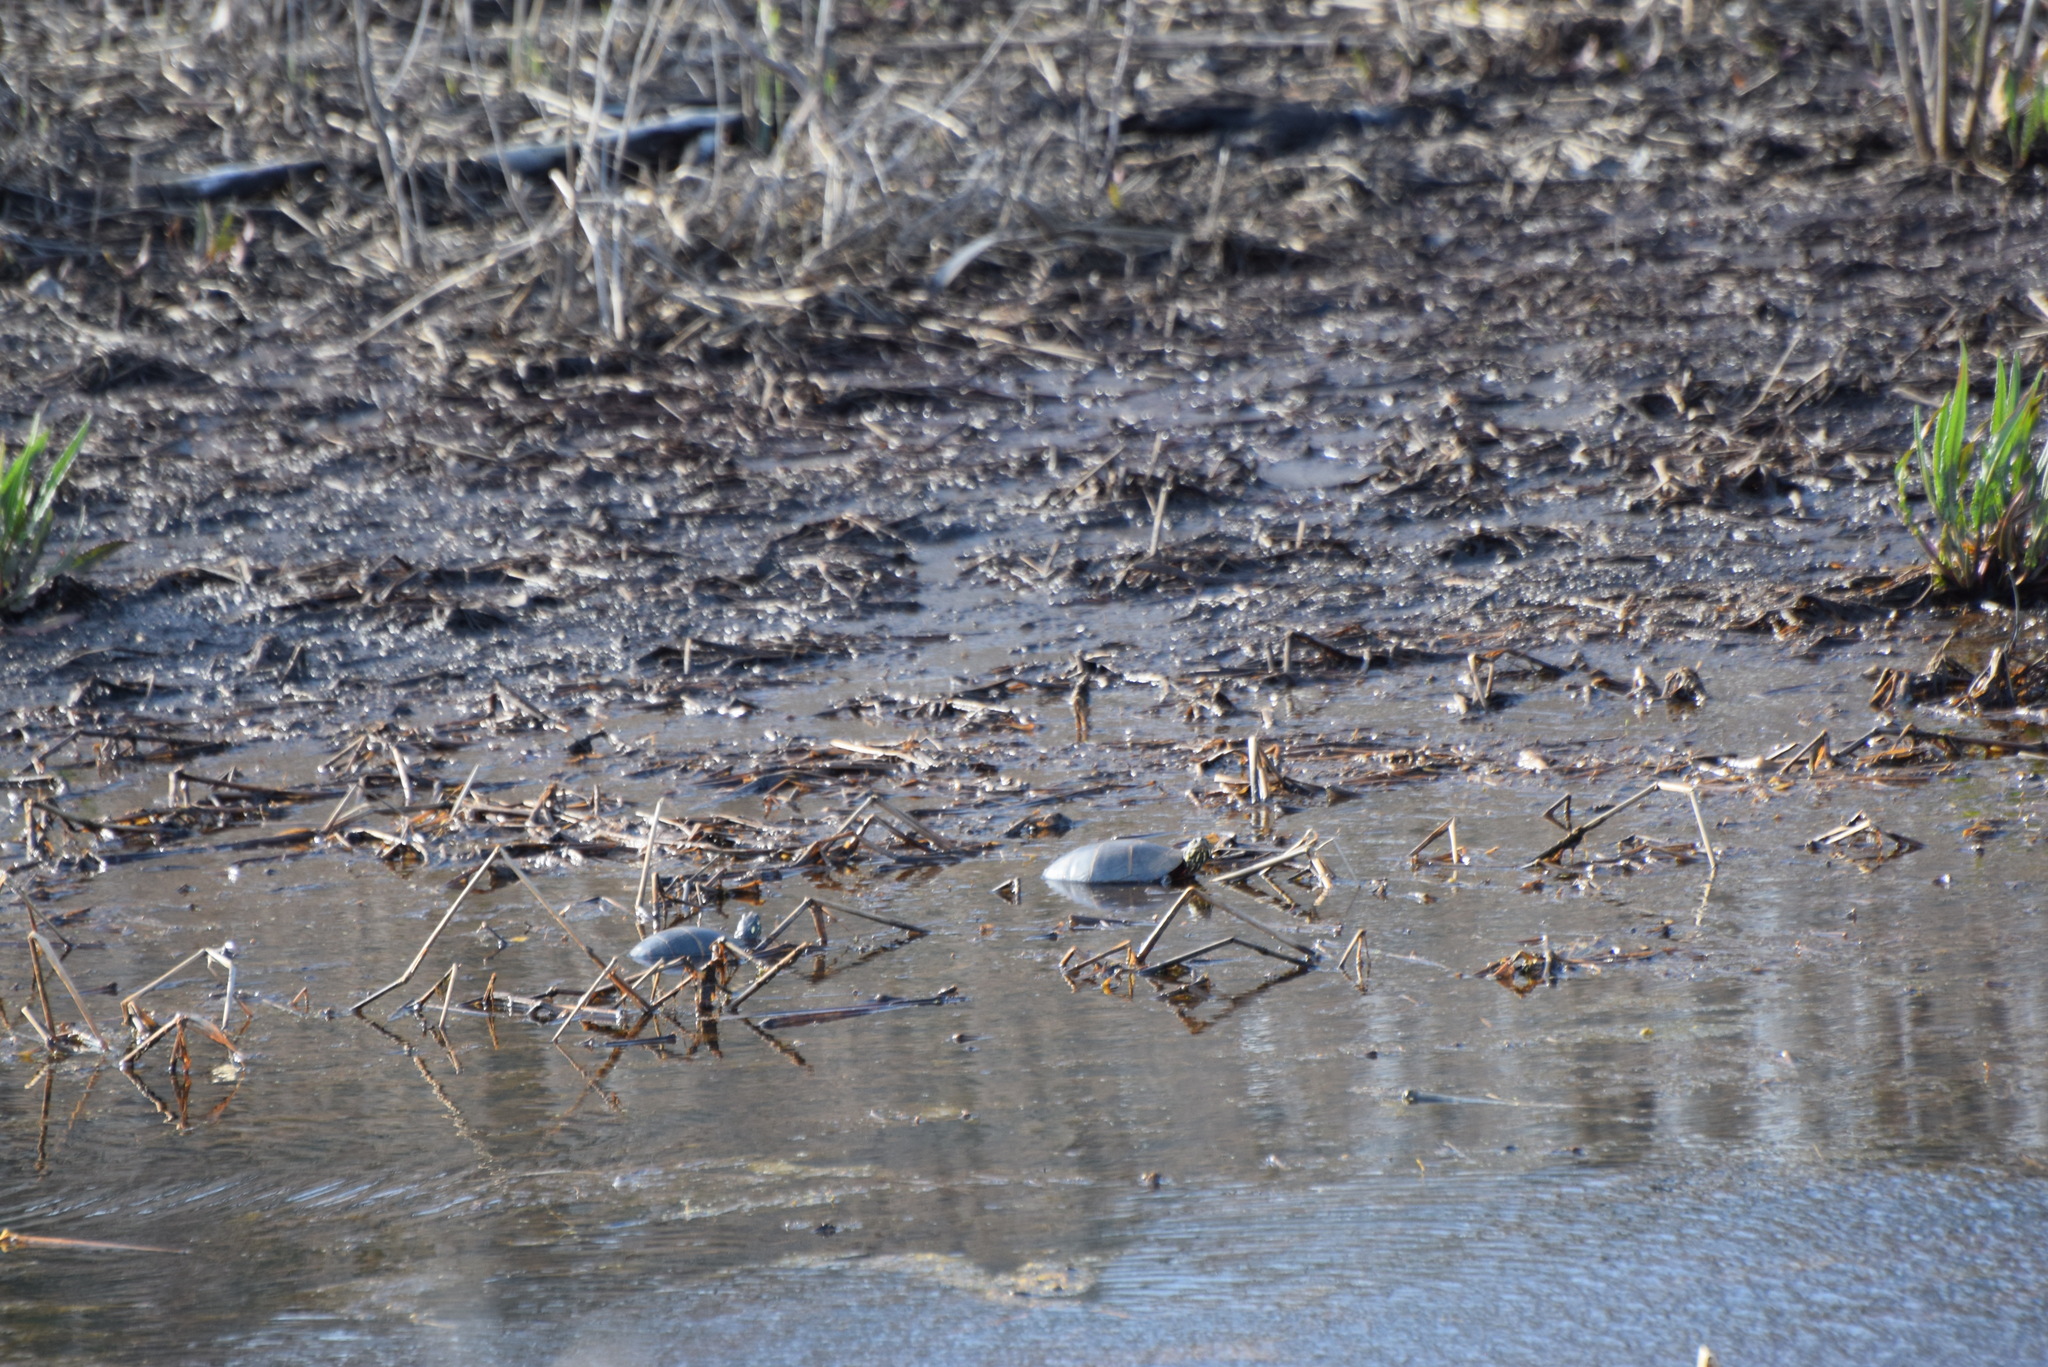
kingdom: Animalia
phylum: Chordata
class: Testudines
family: Emydidae
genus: Chrysemys
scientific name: Chrysemys picta
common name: Painted turtle
